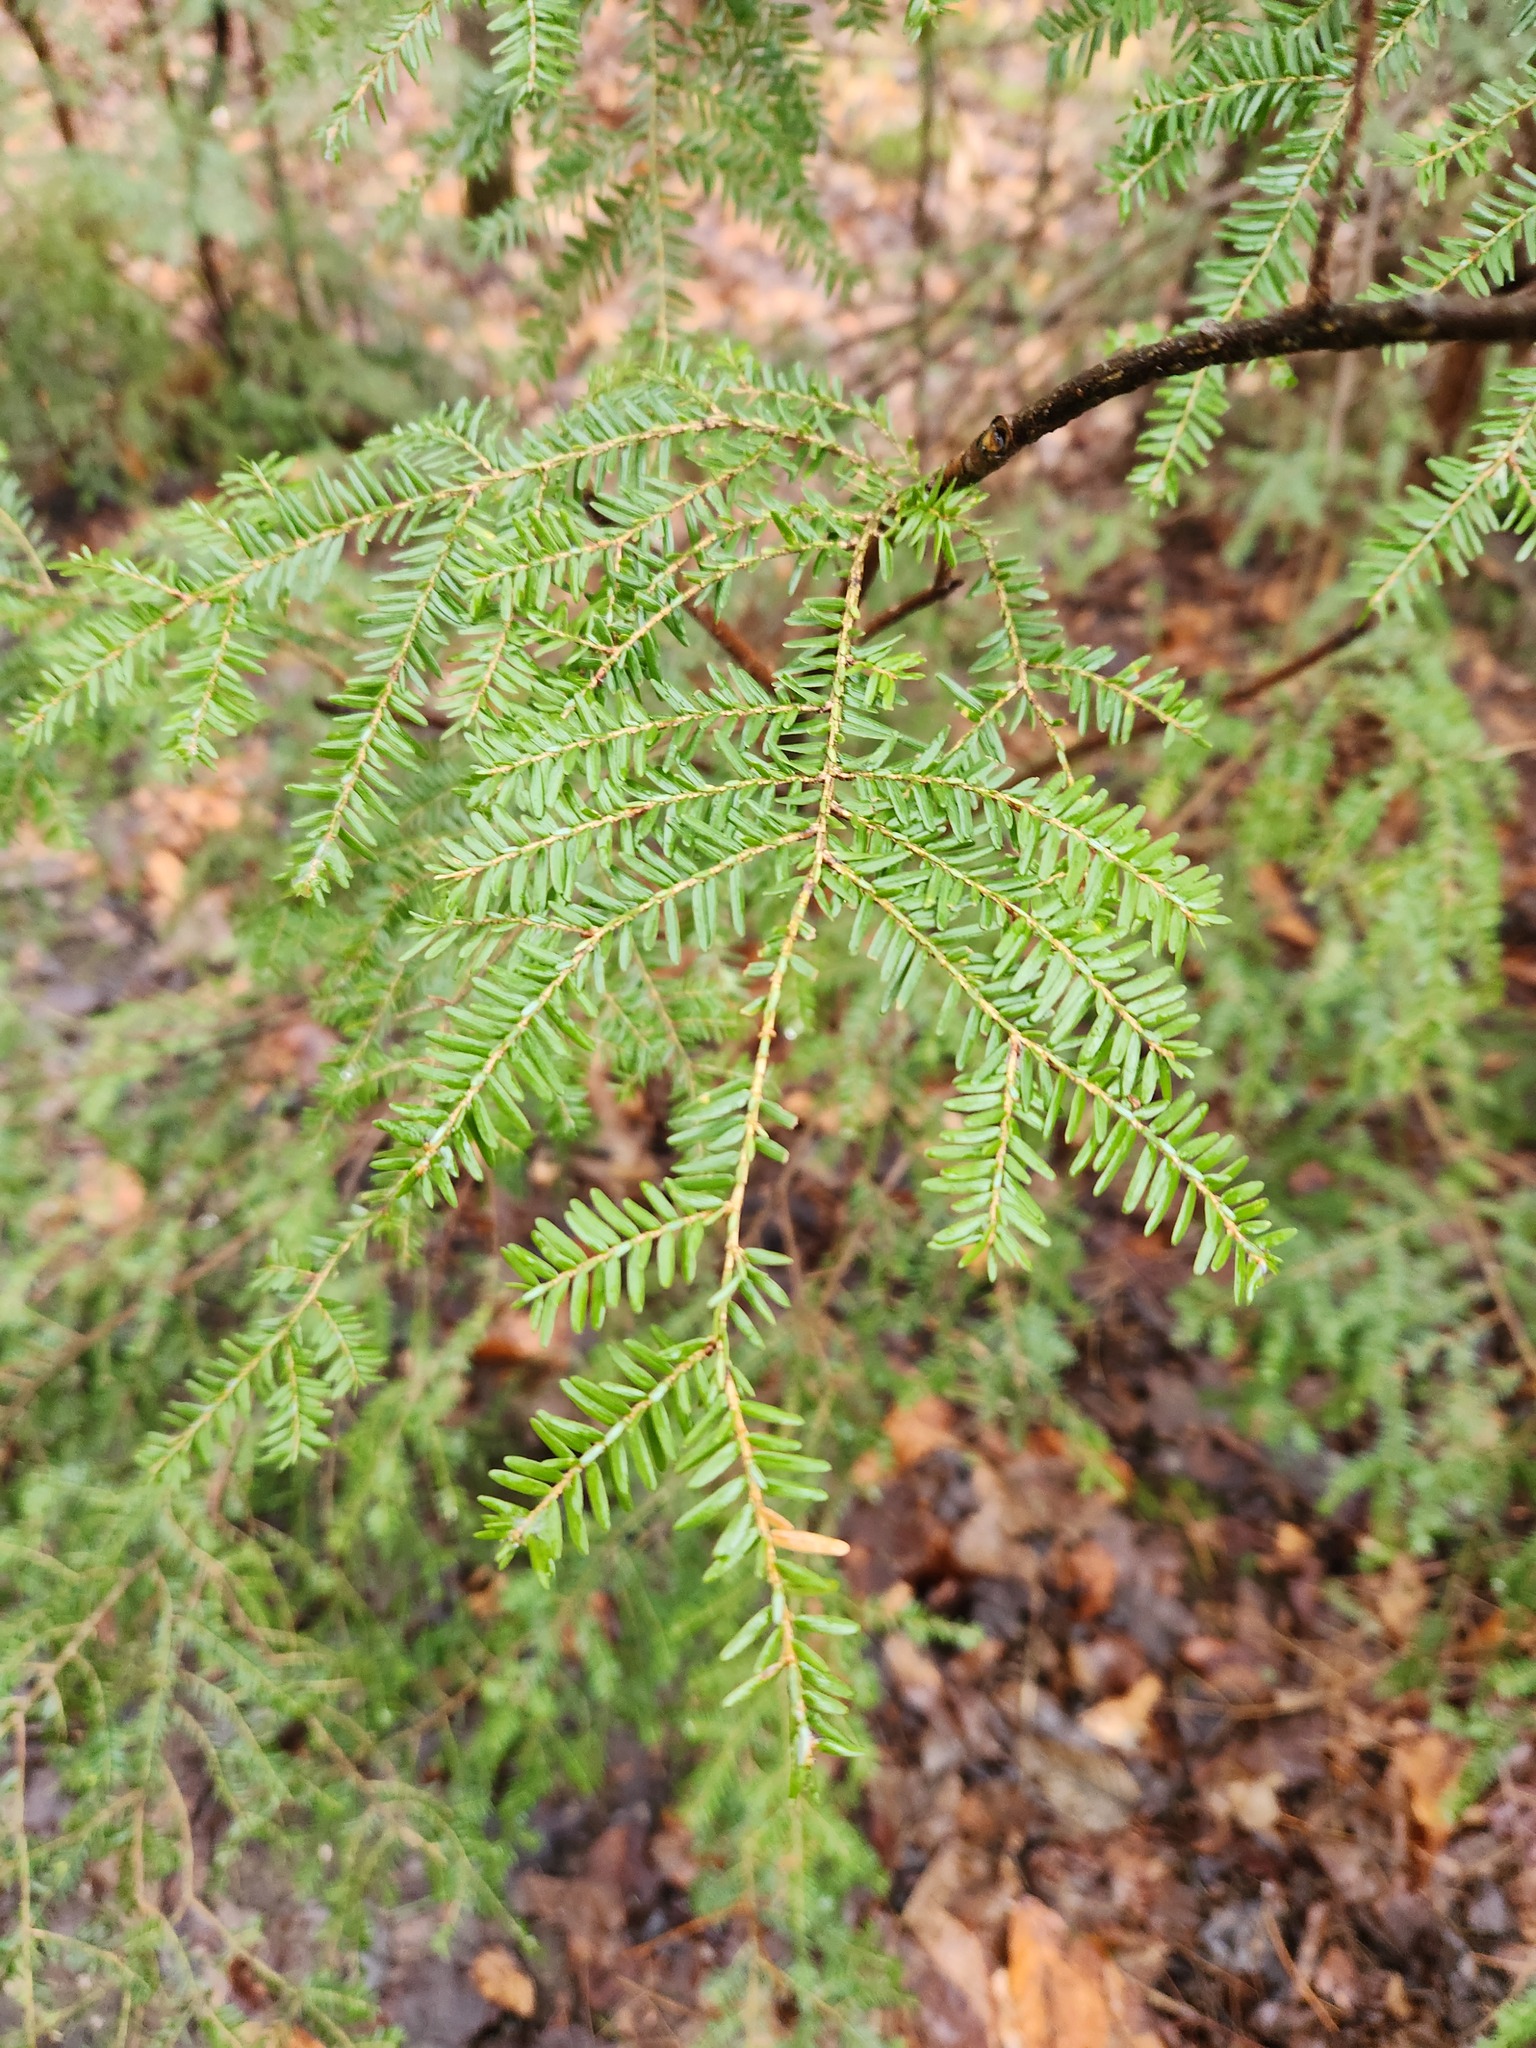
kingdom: Plantae
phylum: Tracheophyta
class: Pinopsida
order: Pinales
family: Pinaceae
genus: Tsuga
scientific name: Tsuga canadensis
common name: Eastern hemlock
